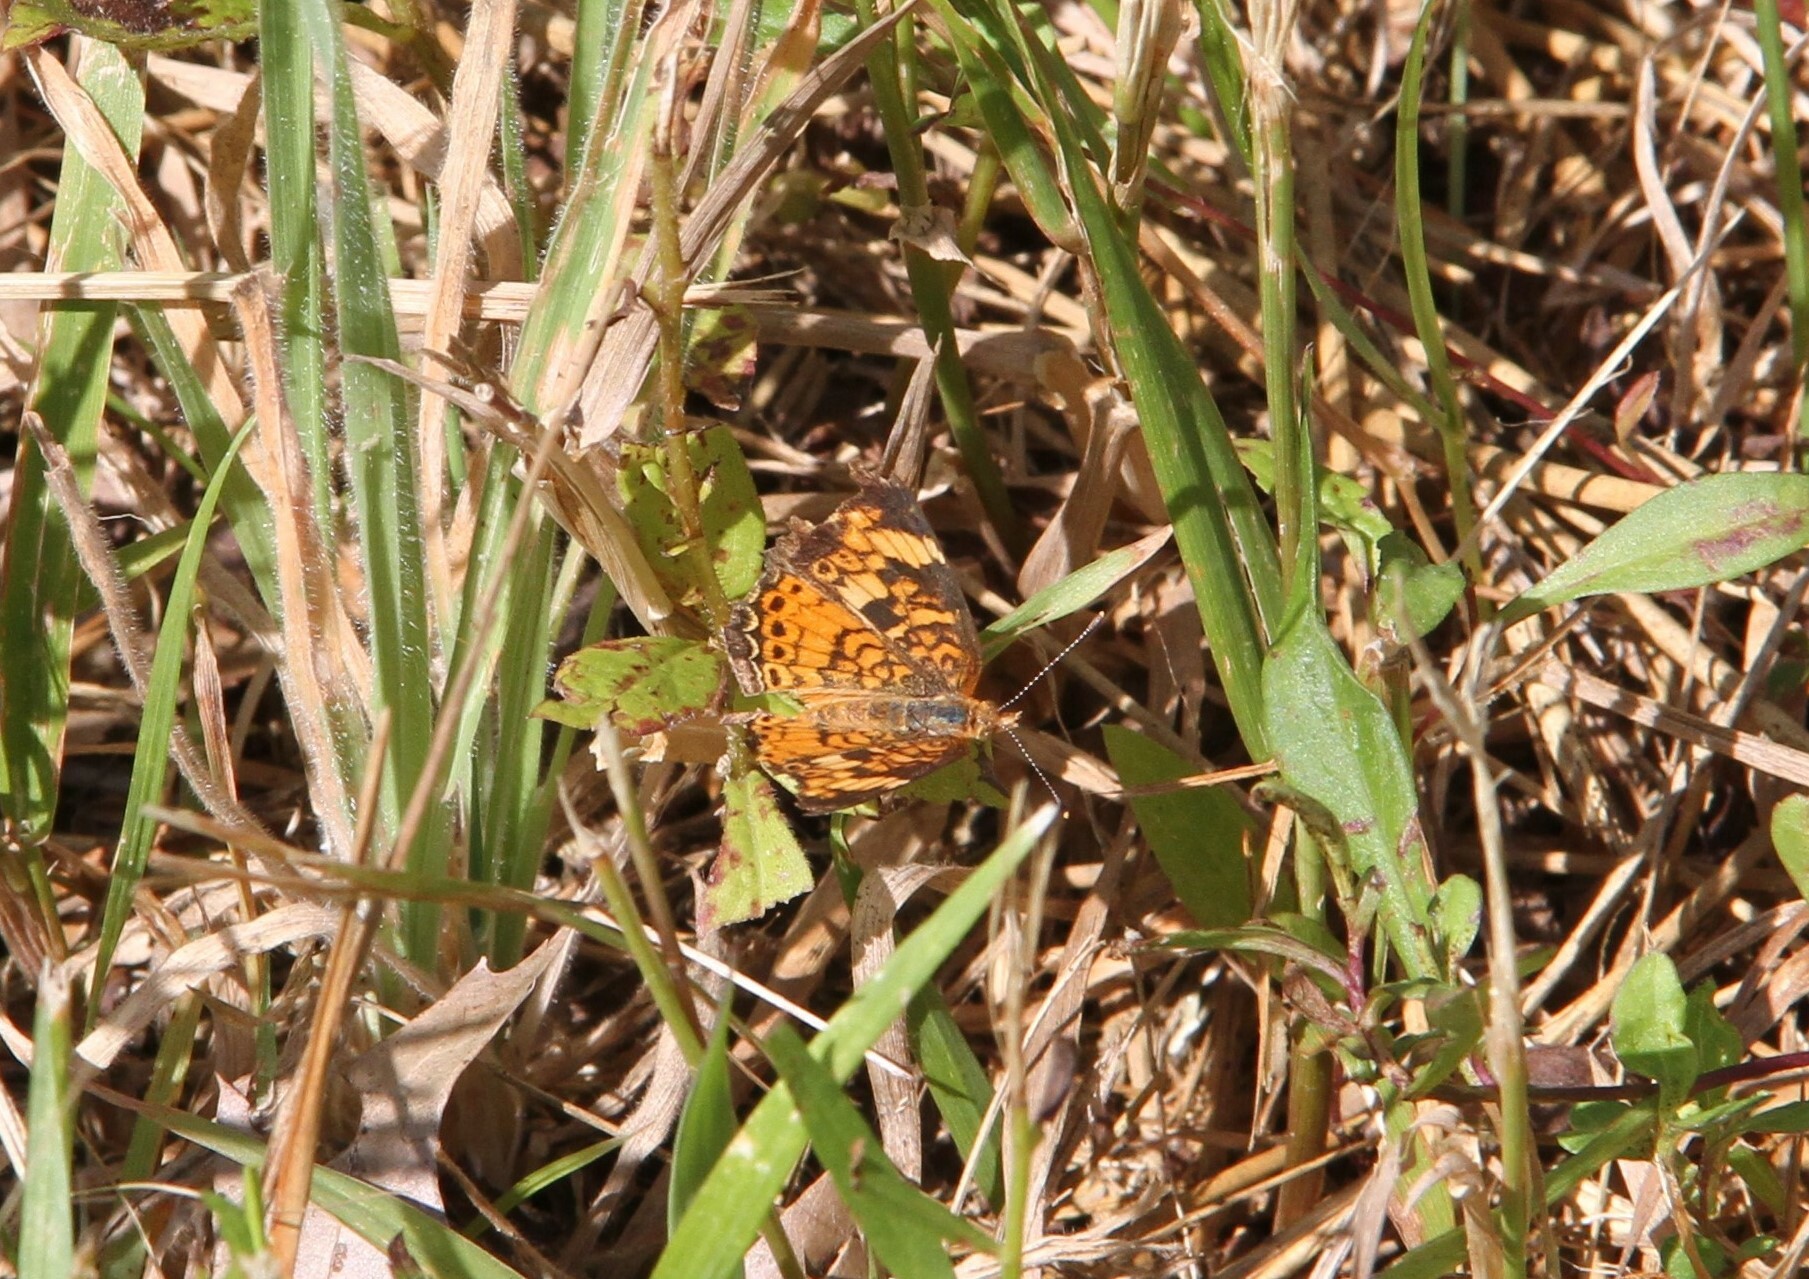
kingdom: Animalia
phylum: Arthropoda
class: Insecta
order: Lepidoptera
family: Nymphalidae
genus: Phyciodes
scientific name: Phyciodes tharos
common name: Pearl crescent
